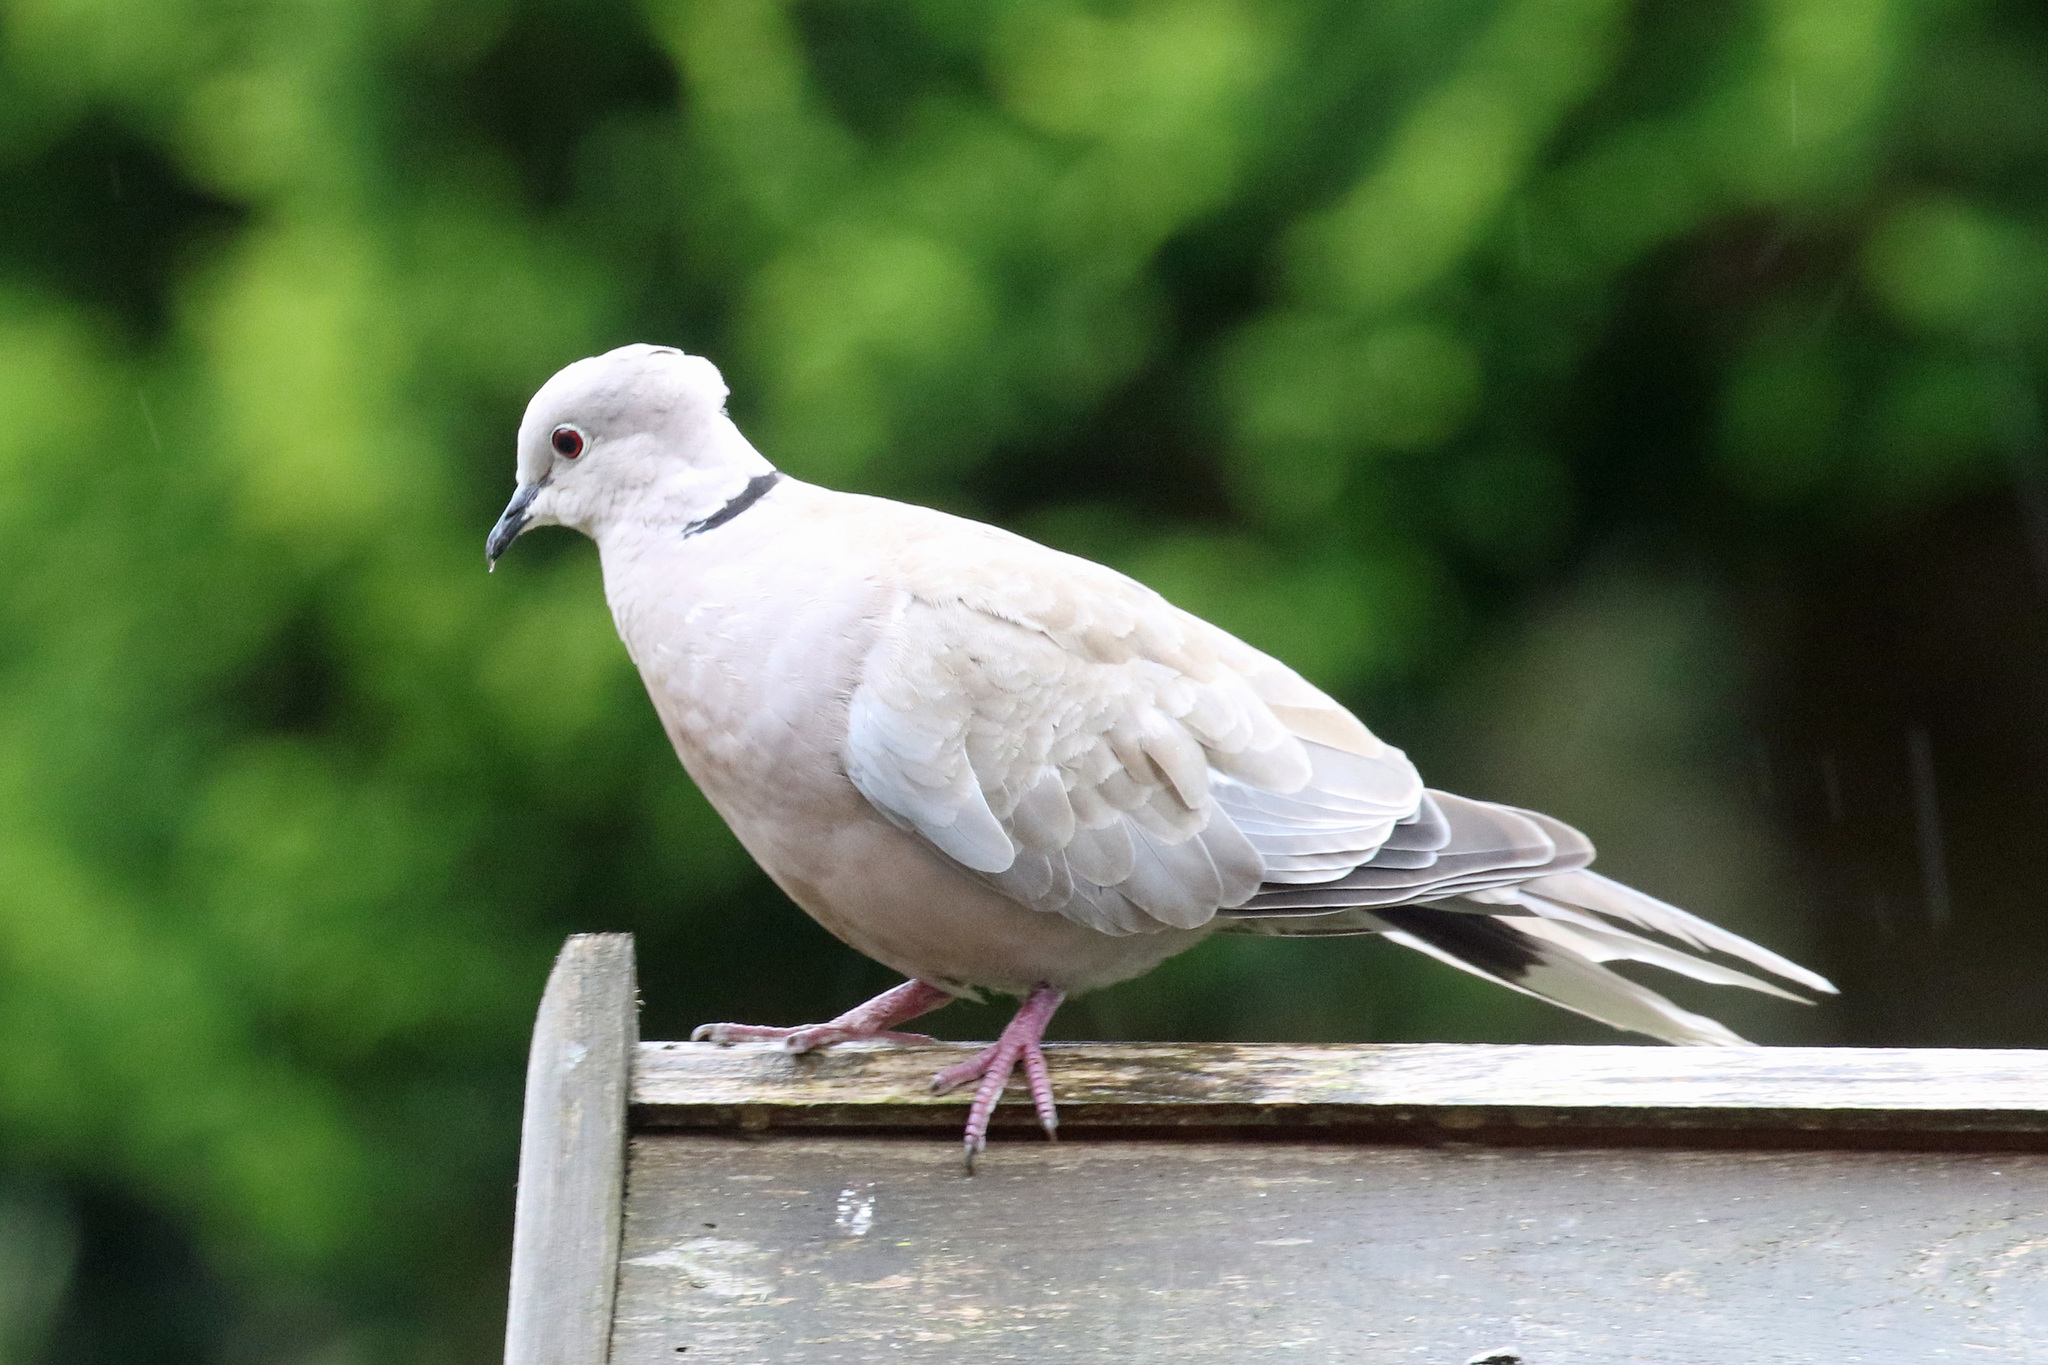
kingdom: Animalia
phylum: Chordata
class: Aves
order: Columbiformes
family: Columbidae
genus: Streptopelia
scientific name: Streptopelia decaocto
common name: Eurasian collared dove
